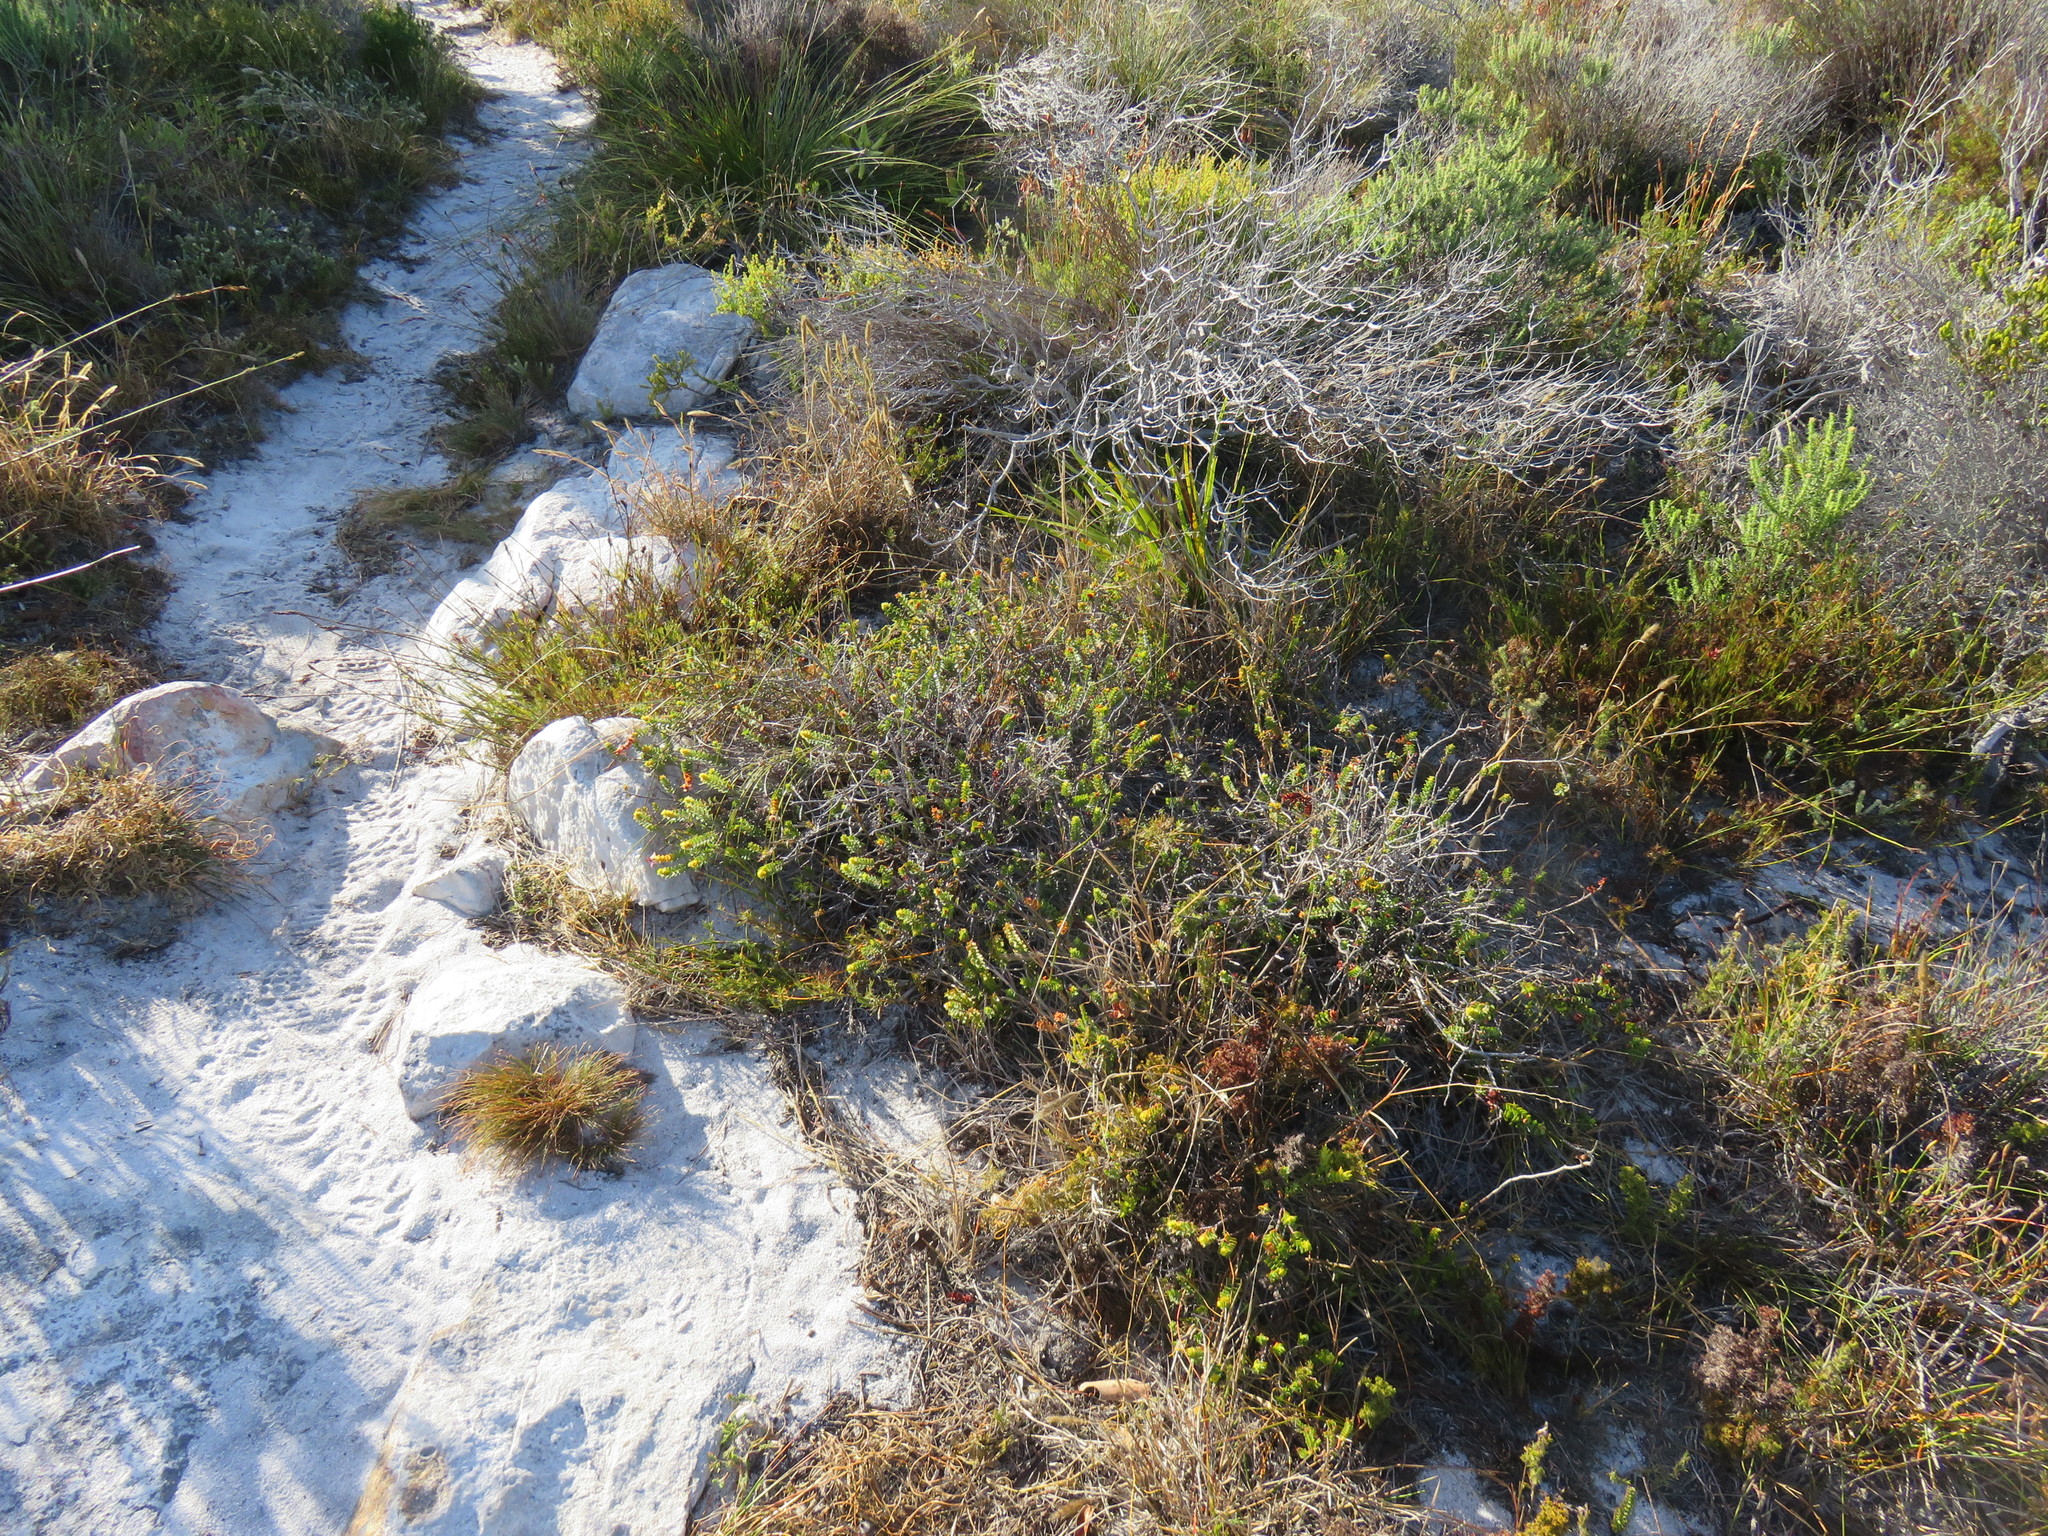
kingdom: Plantae
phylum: Tracheophyta
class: Magnoliopsida
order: Myrtales
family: Penaeaceae
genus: Saltera
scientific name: Saltera sarcocolla
